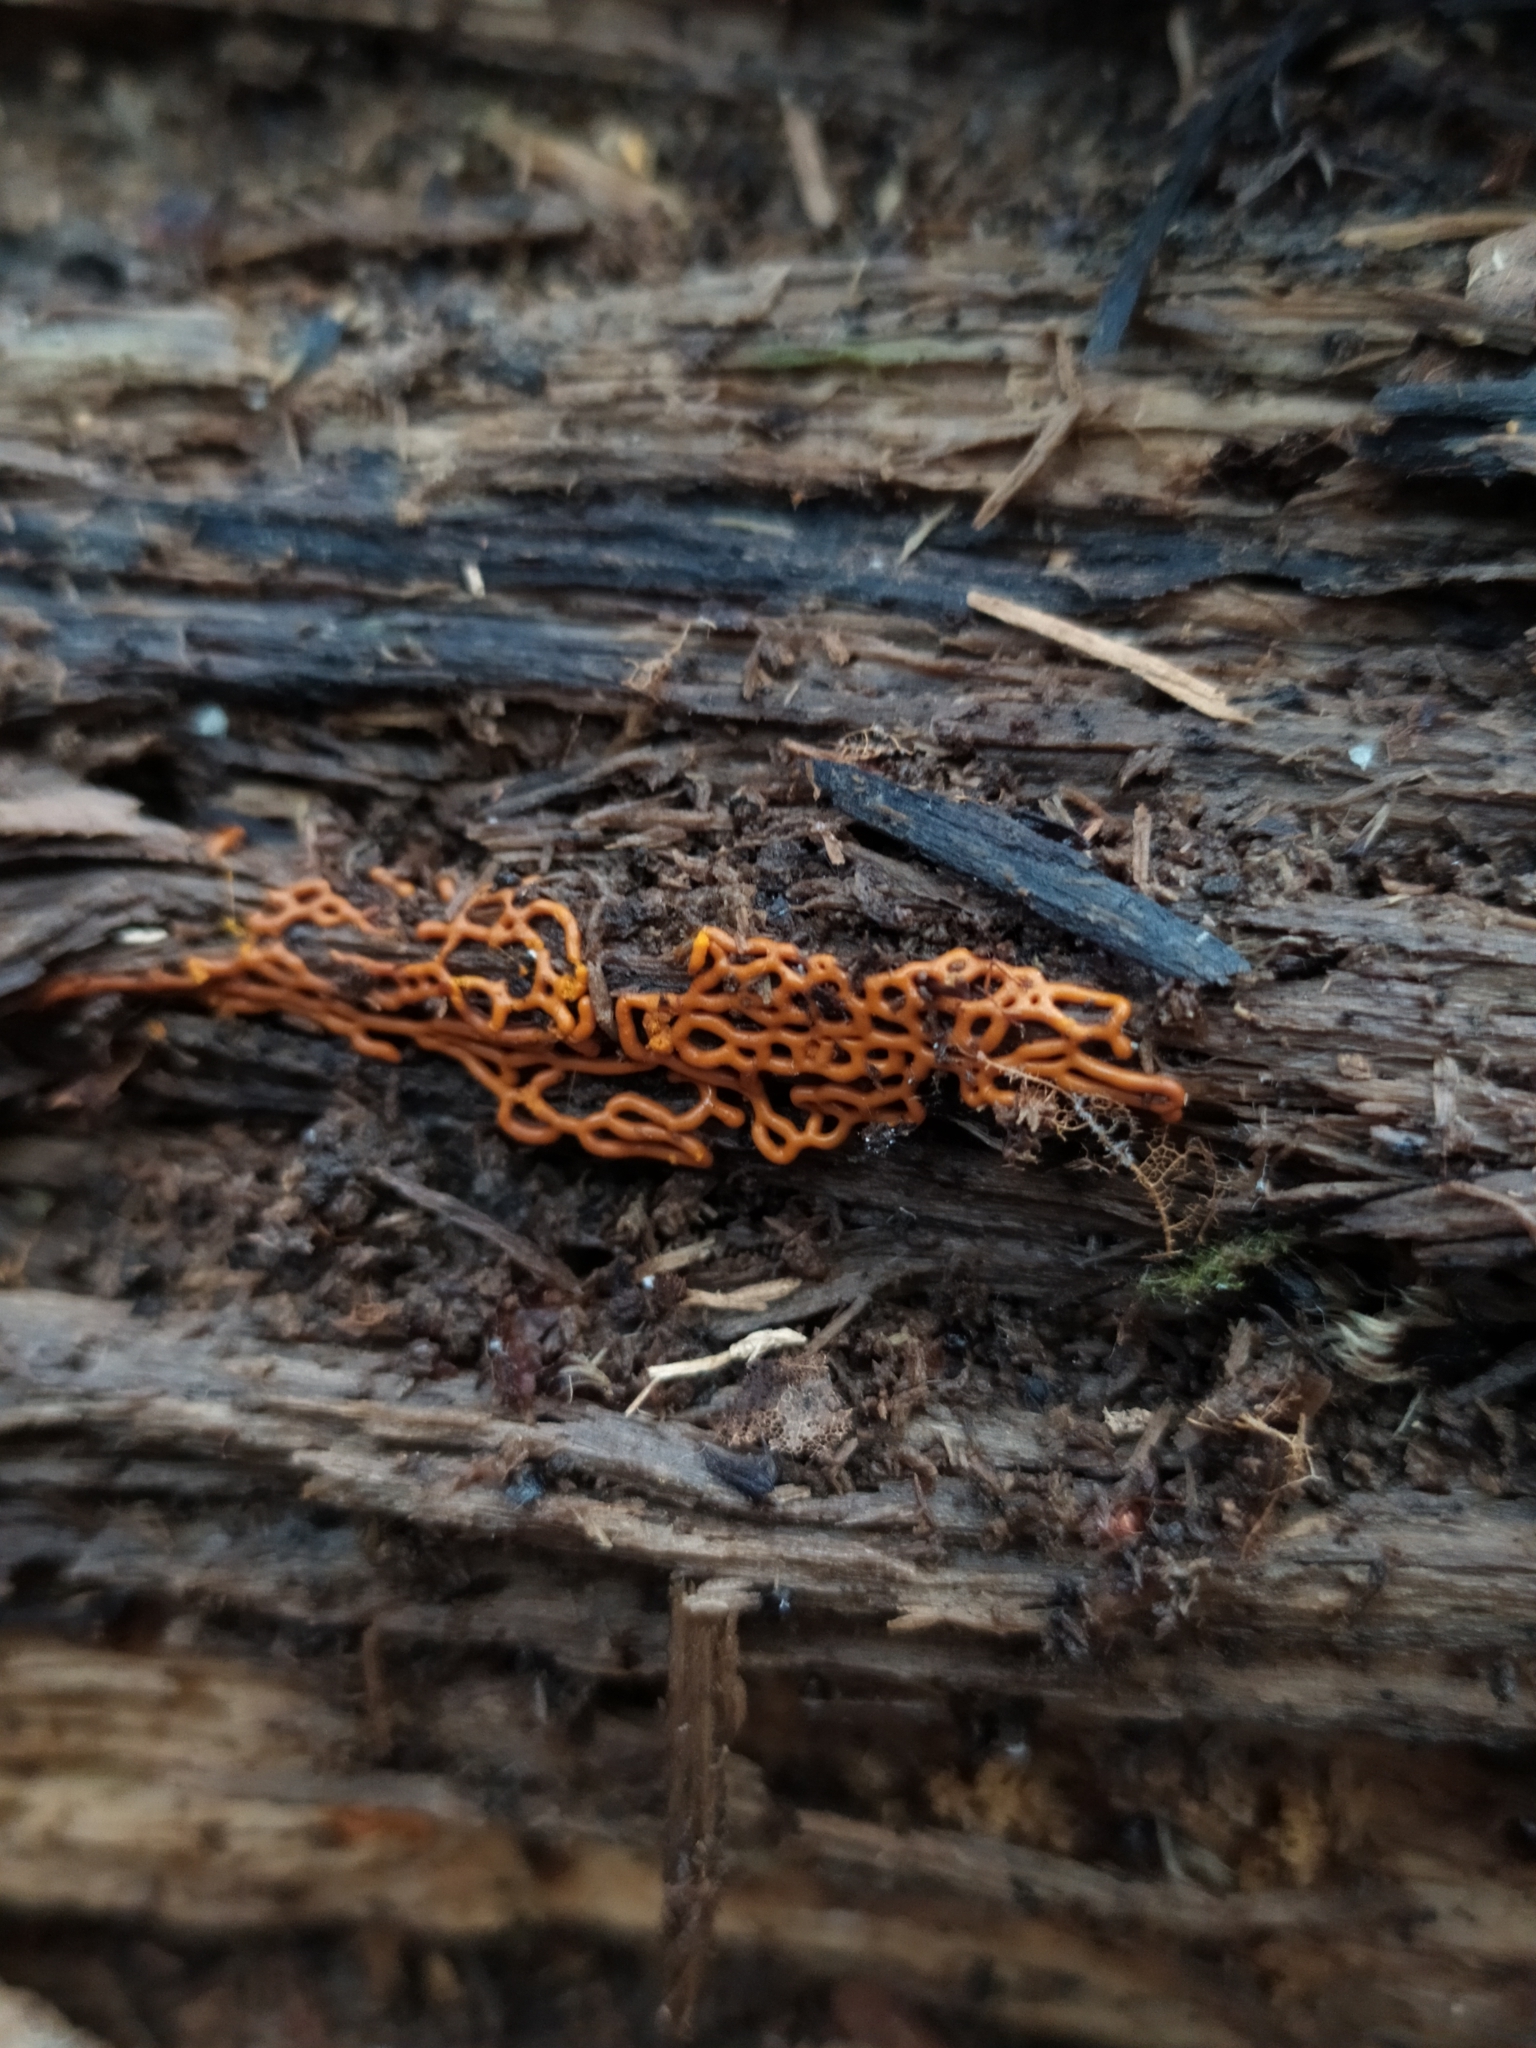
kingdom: Protozoa
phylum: Mycetozoa
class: Myxomycetes
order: Trichiales
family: Arcyriaceae
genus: Hemitrichia
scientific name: Hemitrichia serpula
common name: Pretzel slime mold
